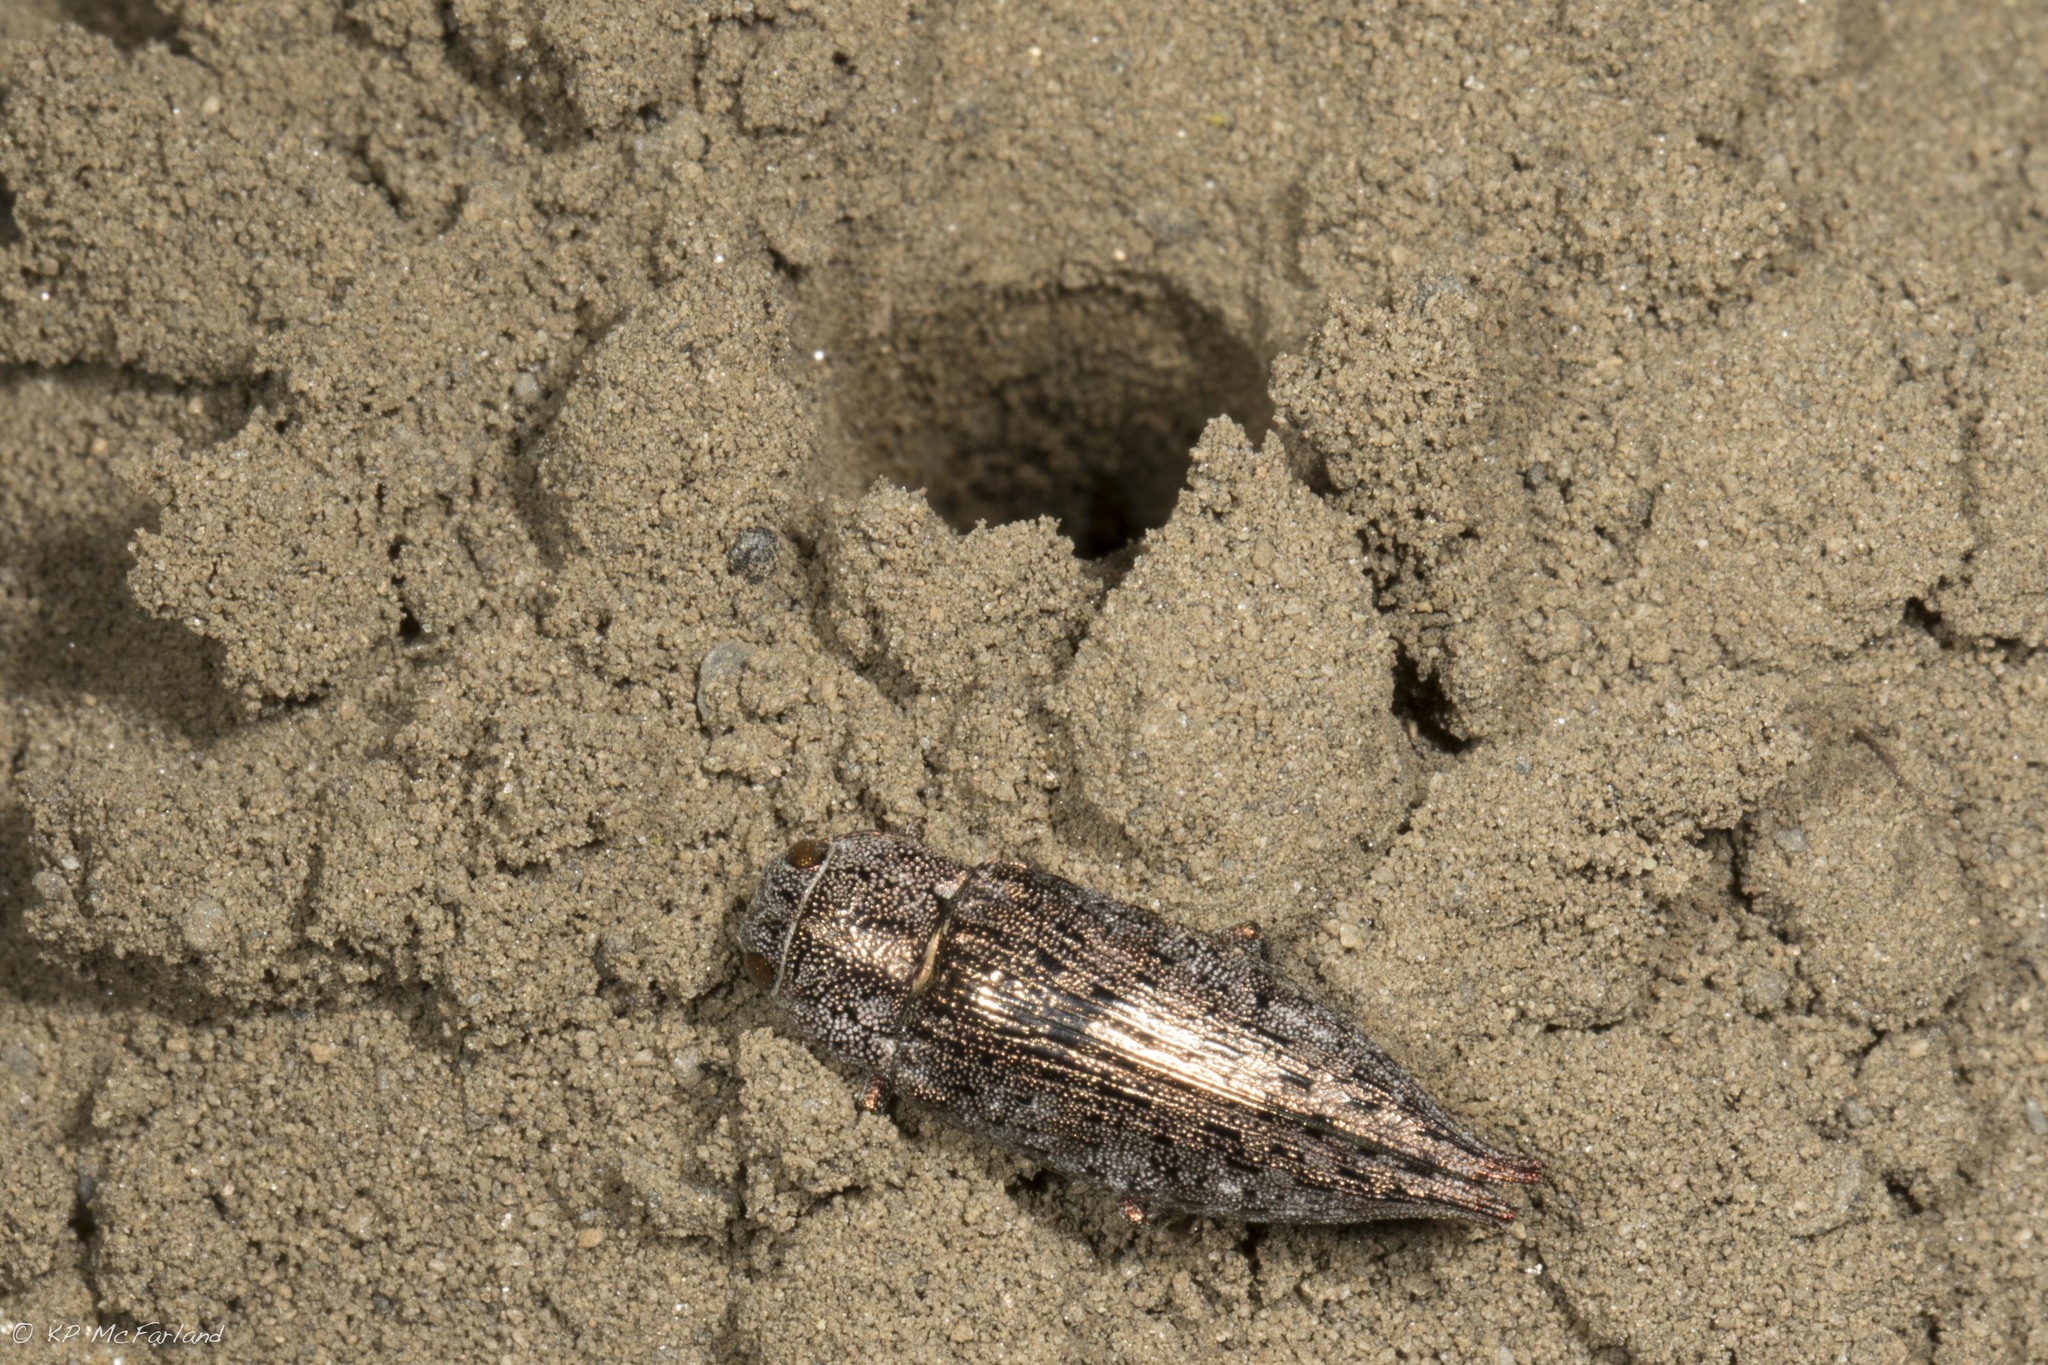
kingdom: Animalia
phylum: Arthropoda
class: Insecta
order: Coleoptera
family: Buprestidae
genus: Dicerca
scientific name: Dicerca
